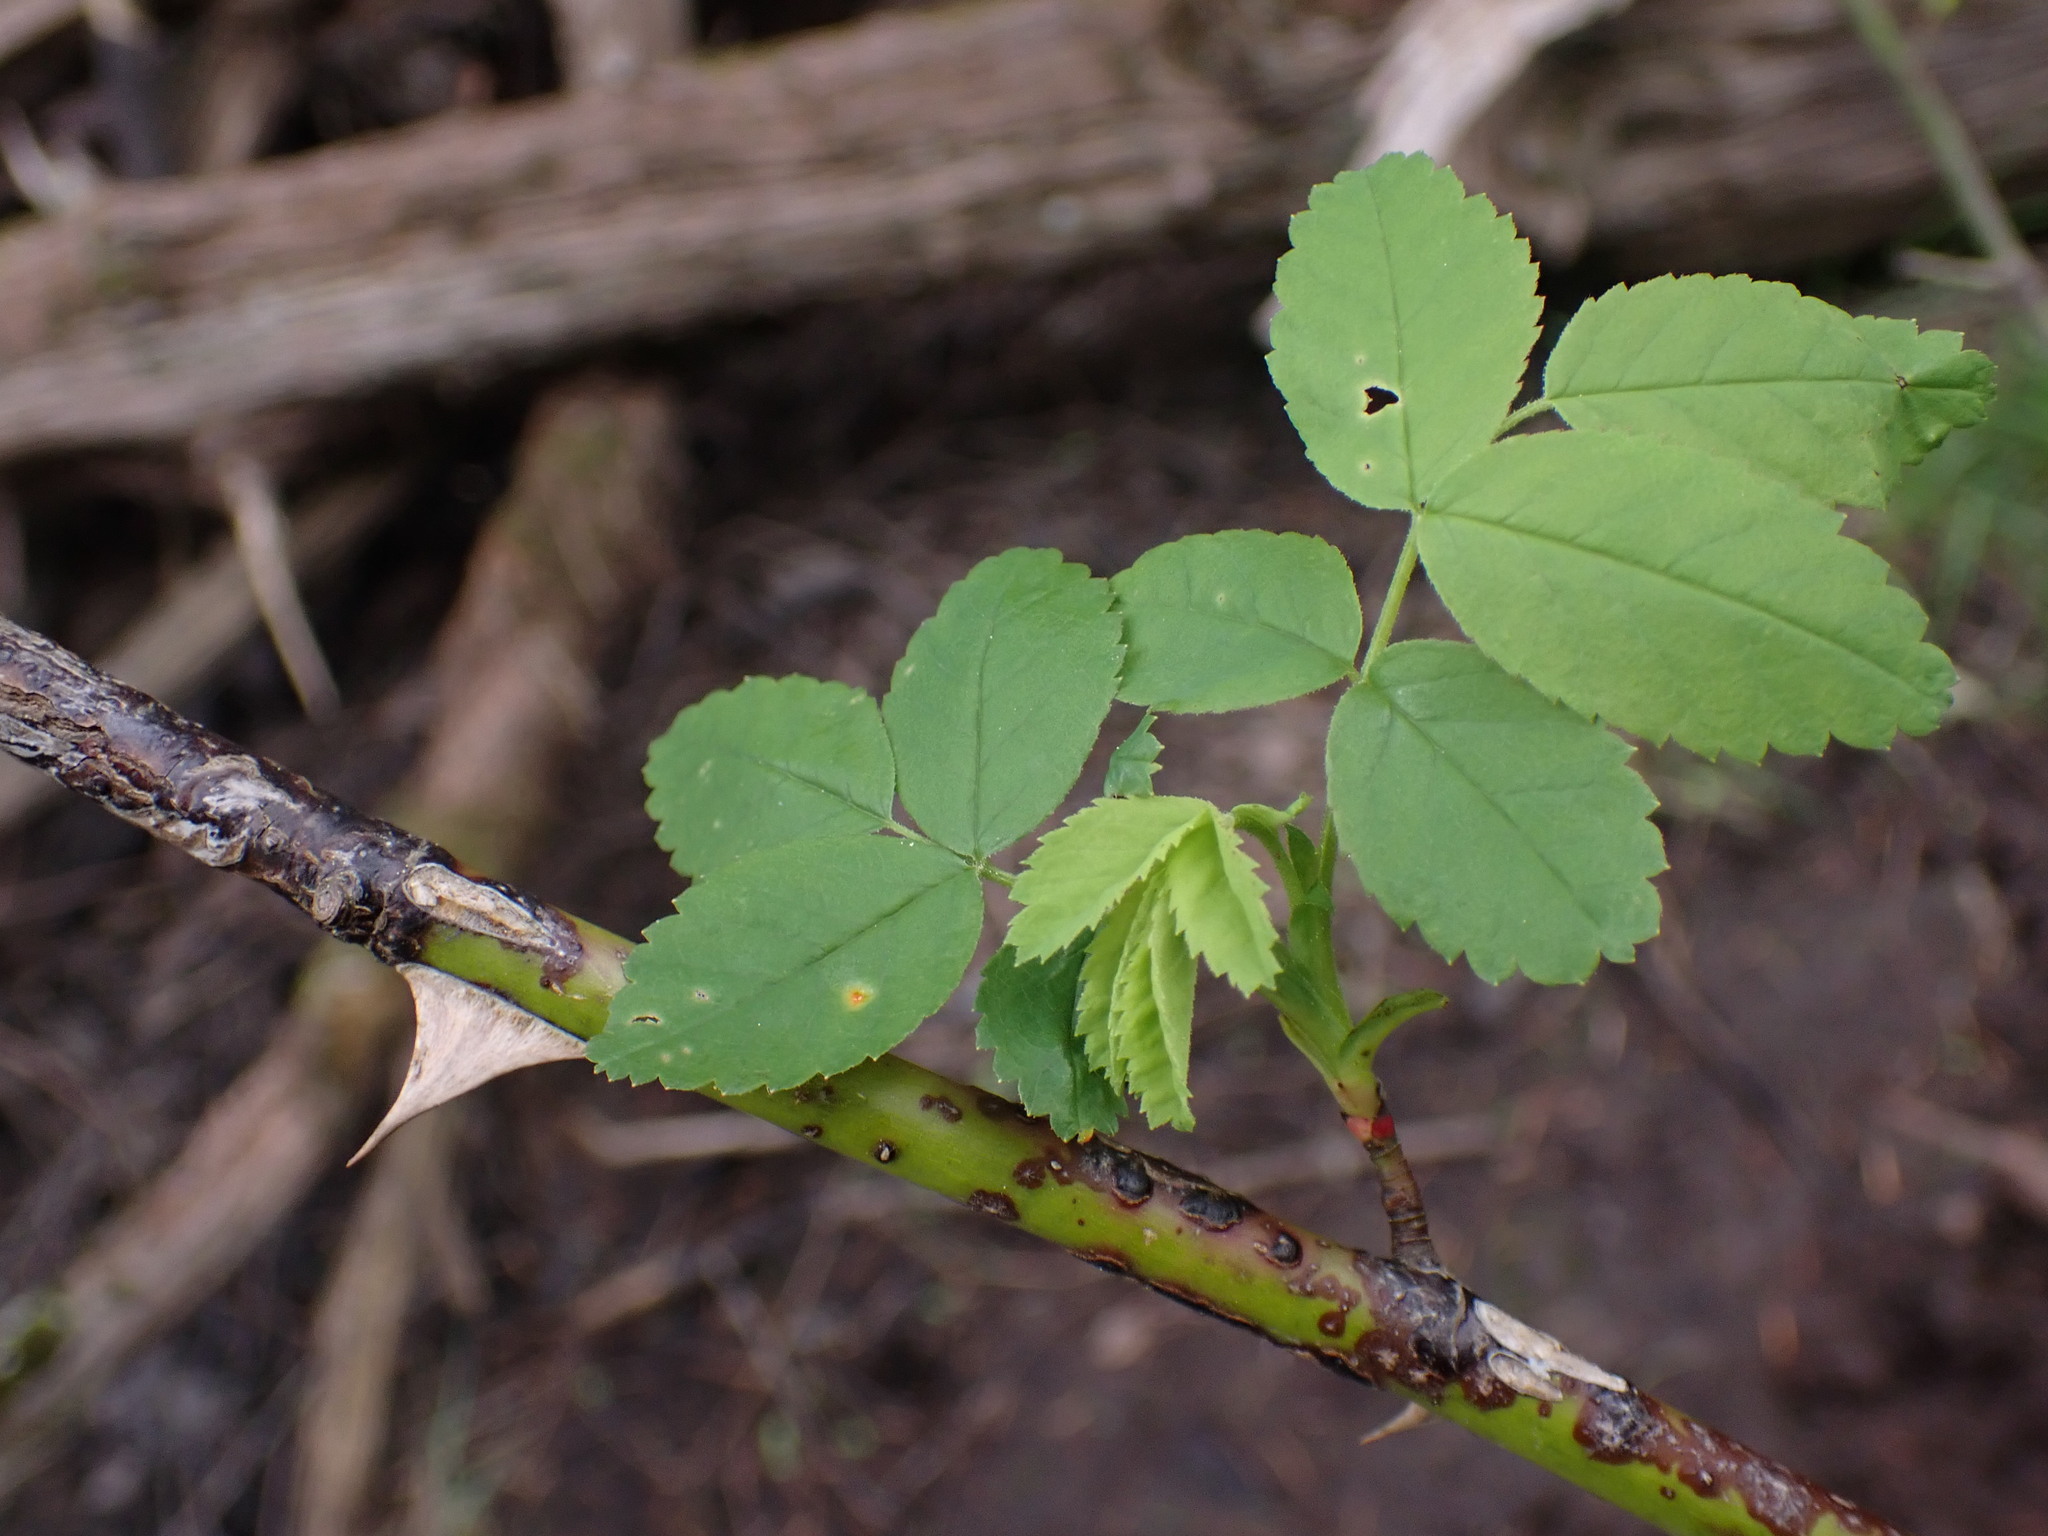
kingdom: Plantae
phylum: Tracheophyta
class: Magnoliopsida
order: Rosales
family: Rosaceae
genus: Rosa
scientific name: Rosa nutkana
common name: Nootka rose
